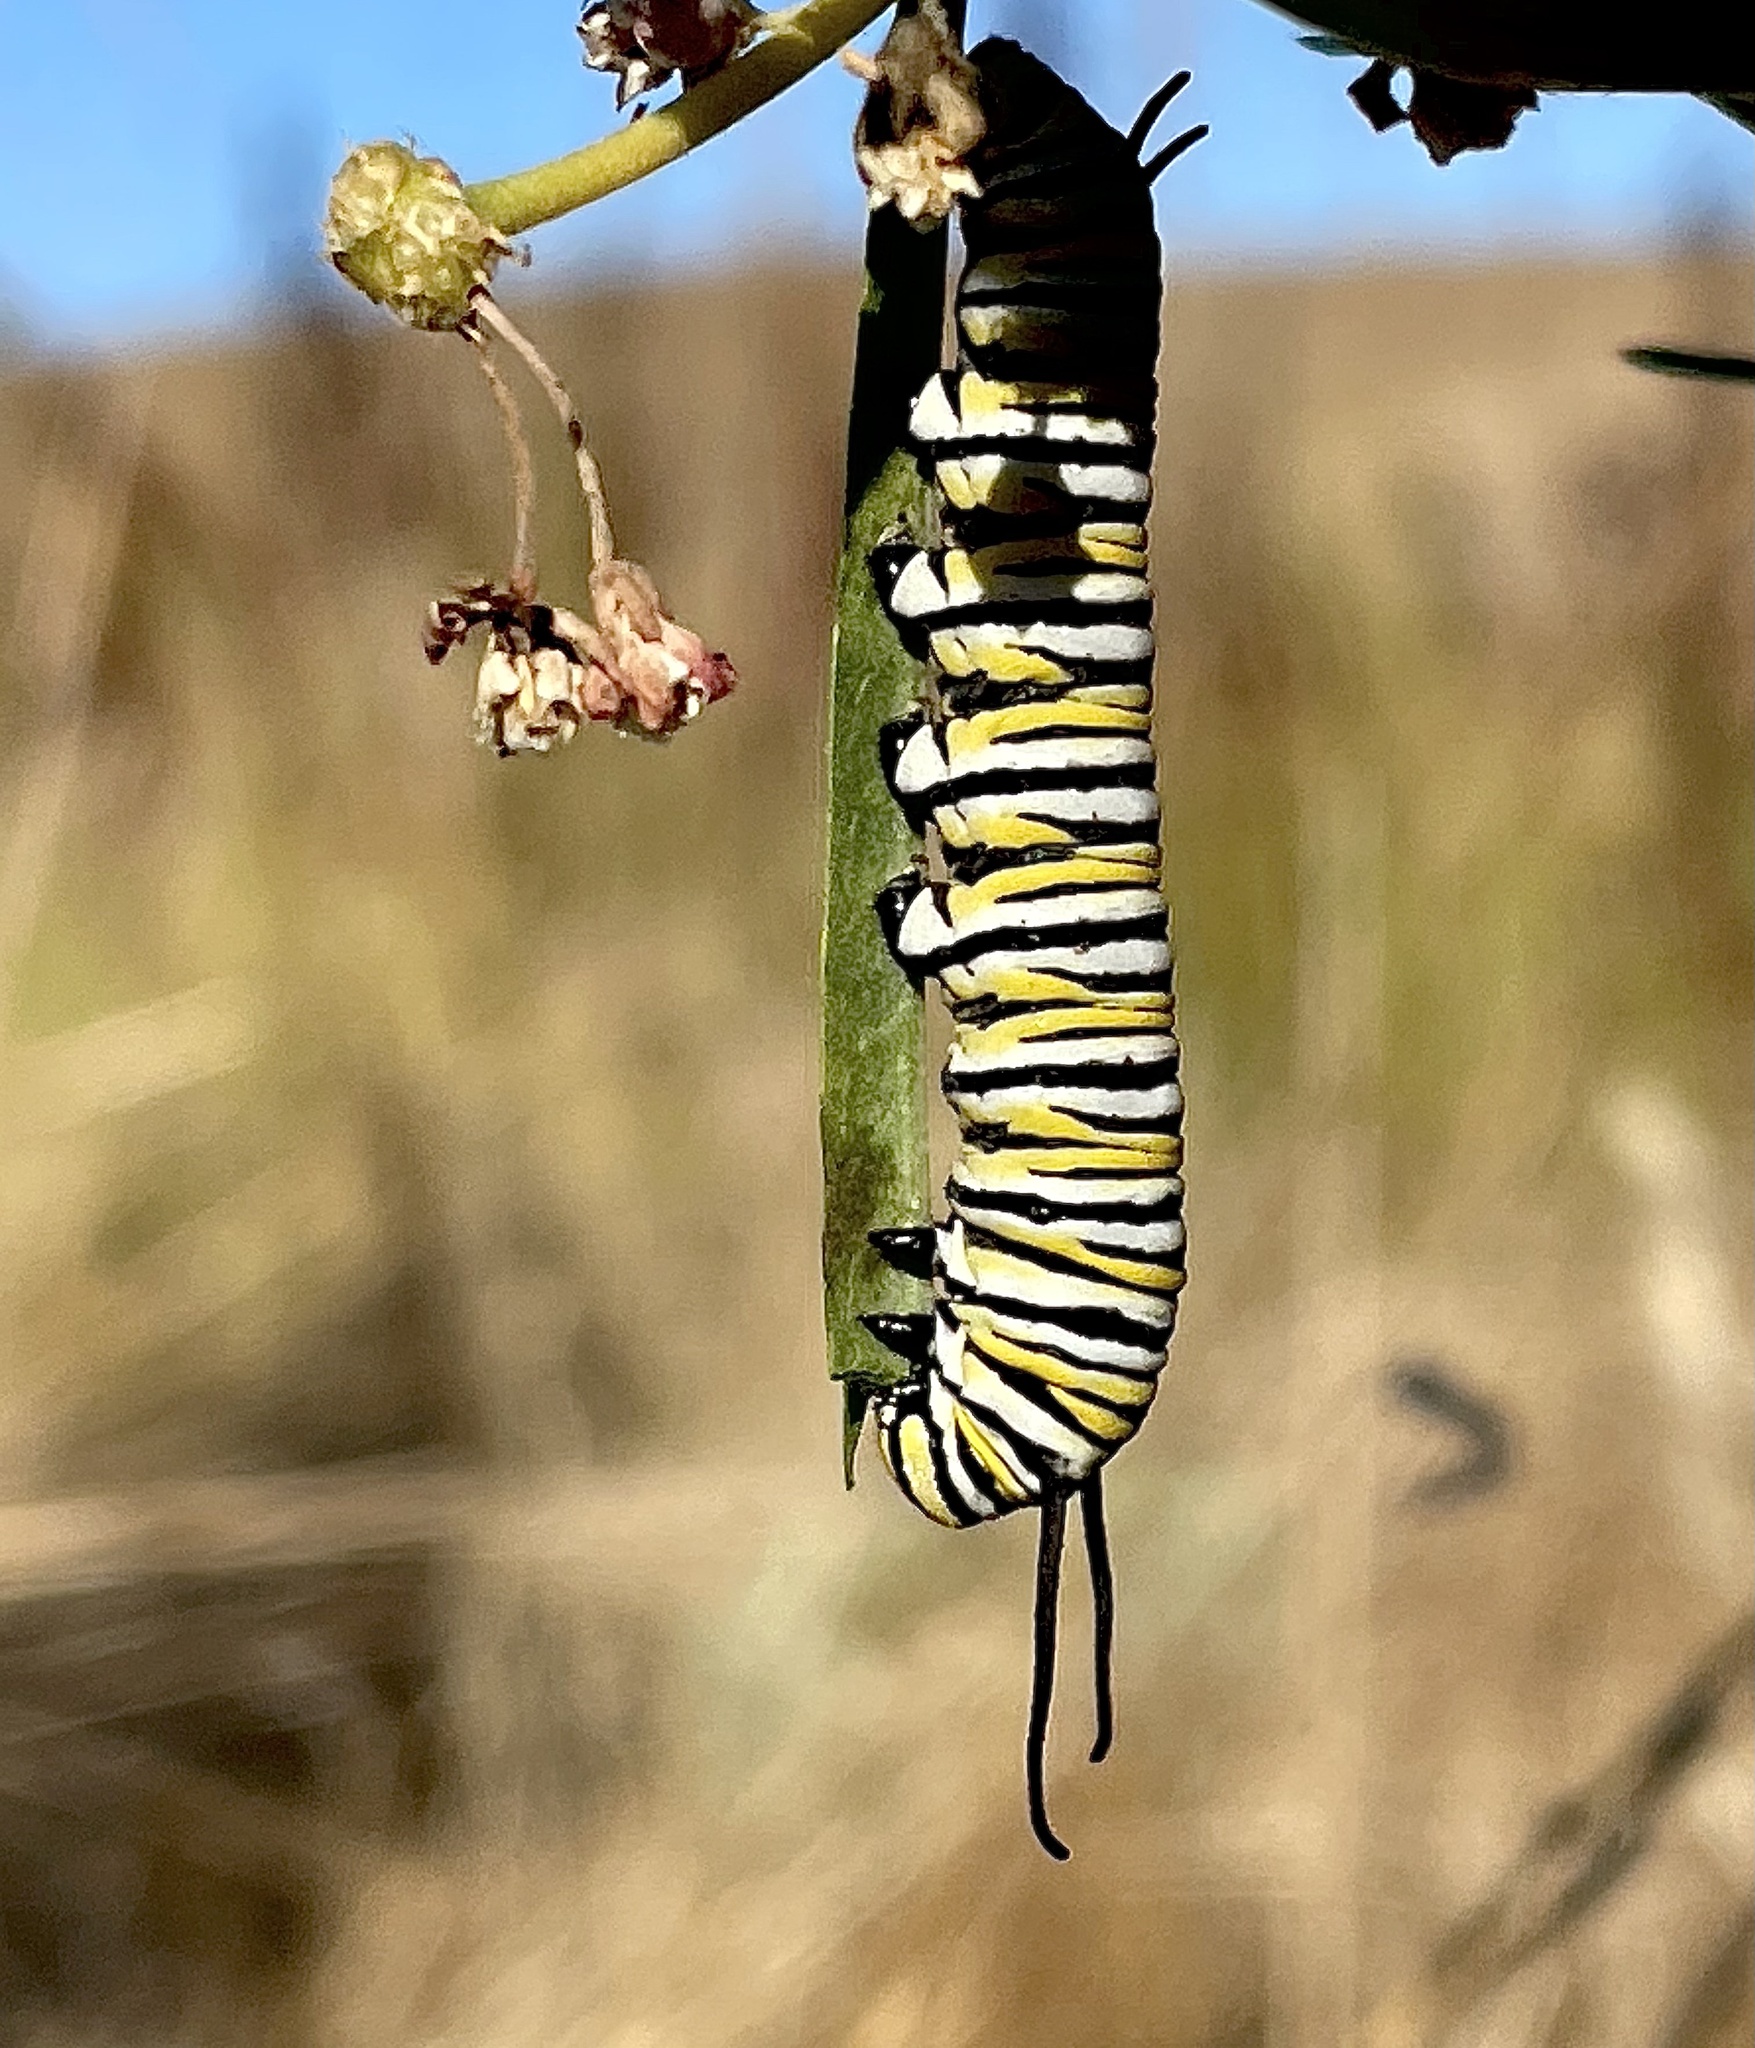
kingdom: Animalia
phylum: Arthropoda
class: Insecta
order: Lepidoptera
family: Nymphalidae
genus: Danaus
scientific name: Danaus plexippus
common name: Monarch
